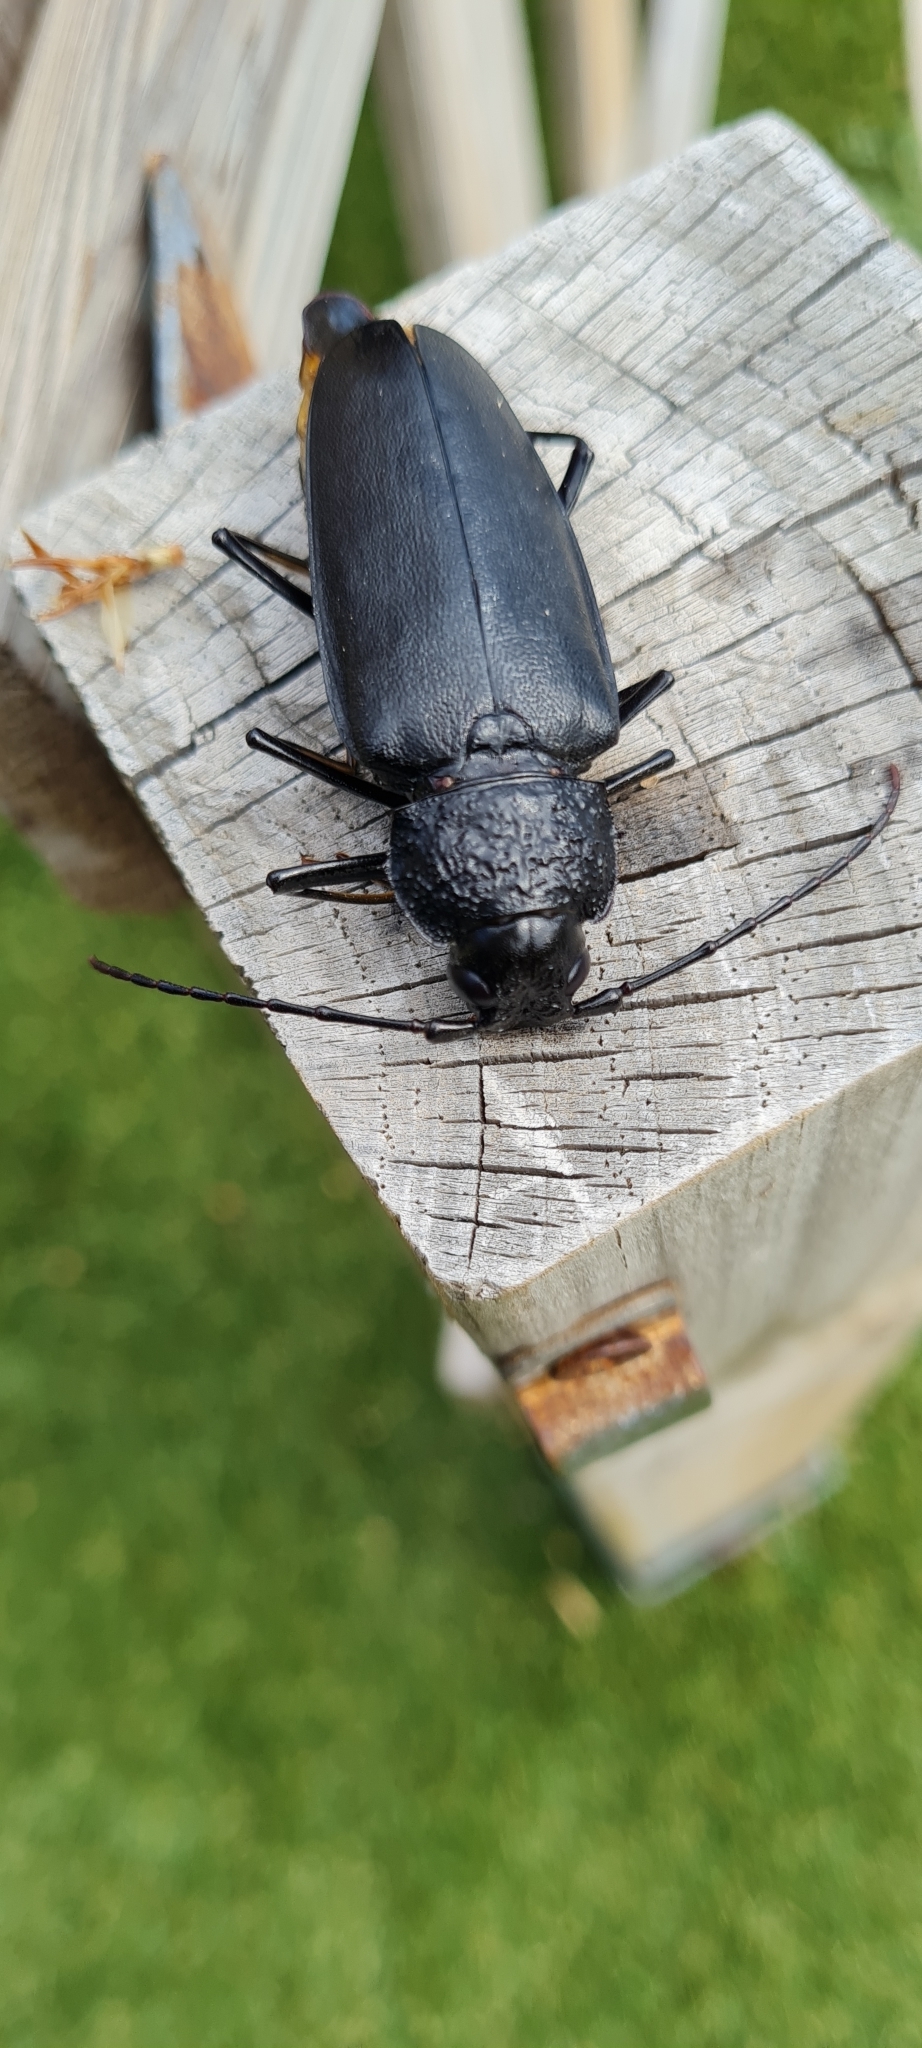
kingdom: Animalia
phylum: Arthropoda
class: Insecta
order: Coleoptera
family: Cerambycidae
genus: Ergates
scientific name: Ergates faber
